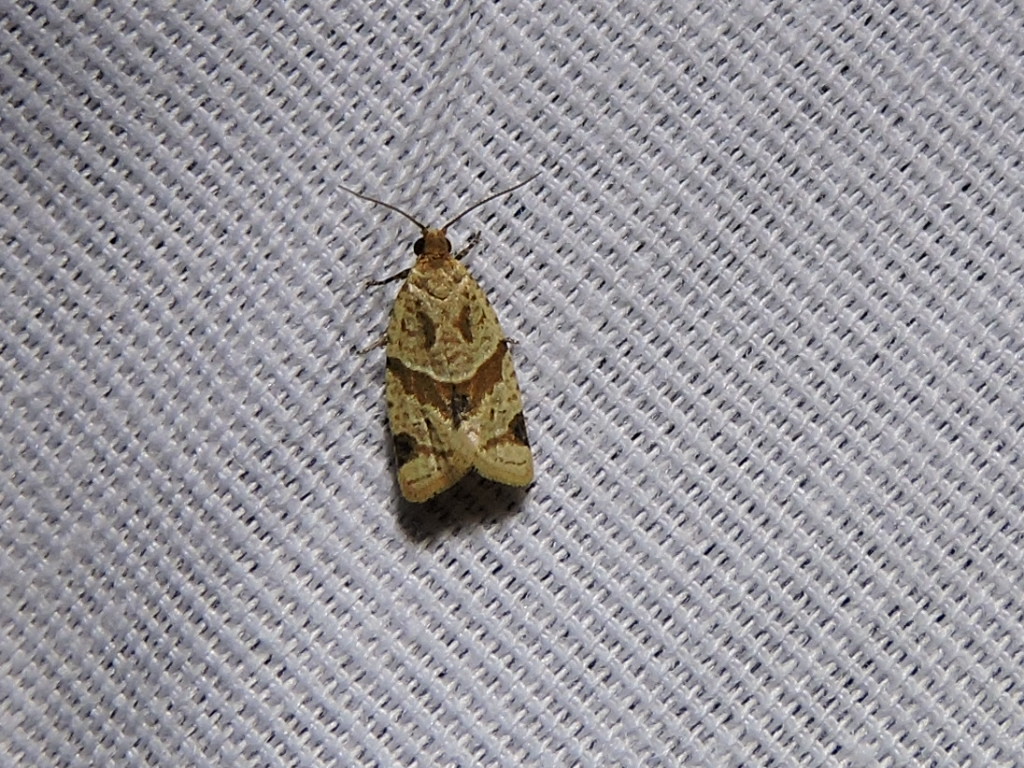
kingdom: Animalia
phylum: Arthropoda
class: Insecta
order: Lepidoptera
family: Tortricidae
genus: Clepsis
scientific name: Clepsis peritana
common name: Garden tortrix
